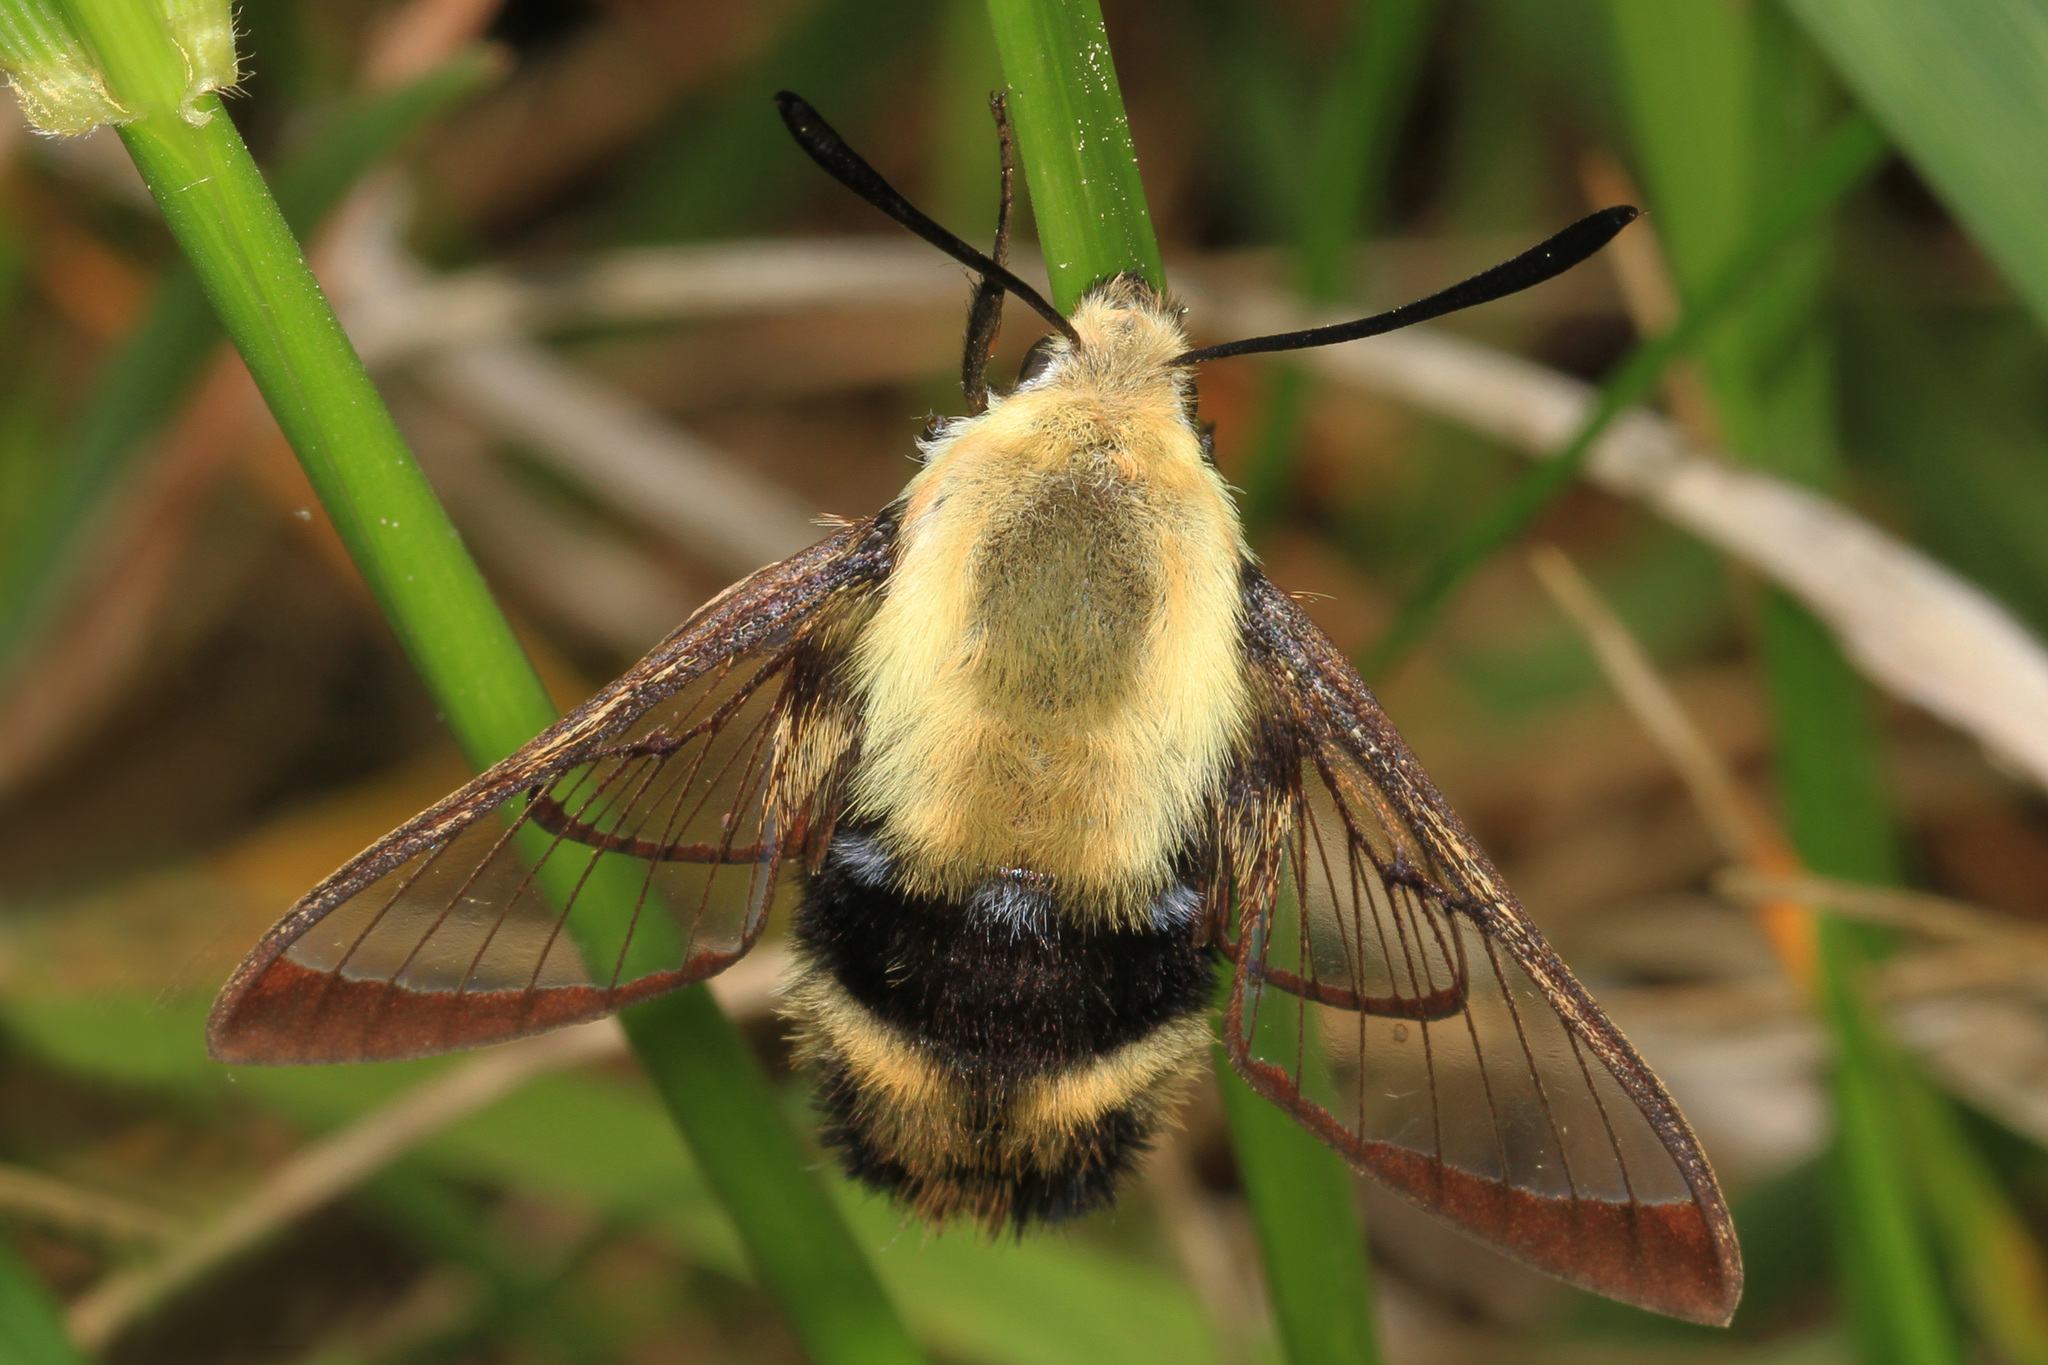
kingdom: Animalia
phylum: Arthropoda
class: Insecta
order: Lepidoptera
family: Sphingidae
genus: Hemaris
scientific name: Hemaris diffinis
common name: Bumblebee moth
